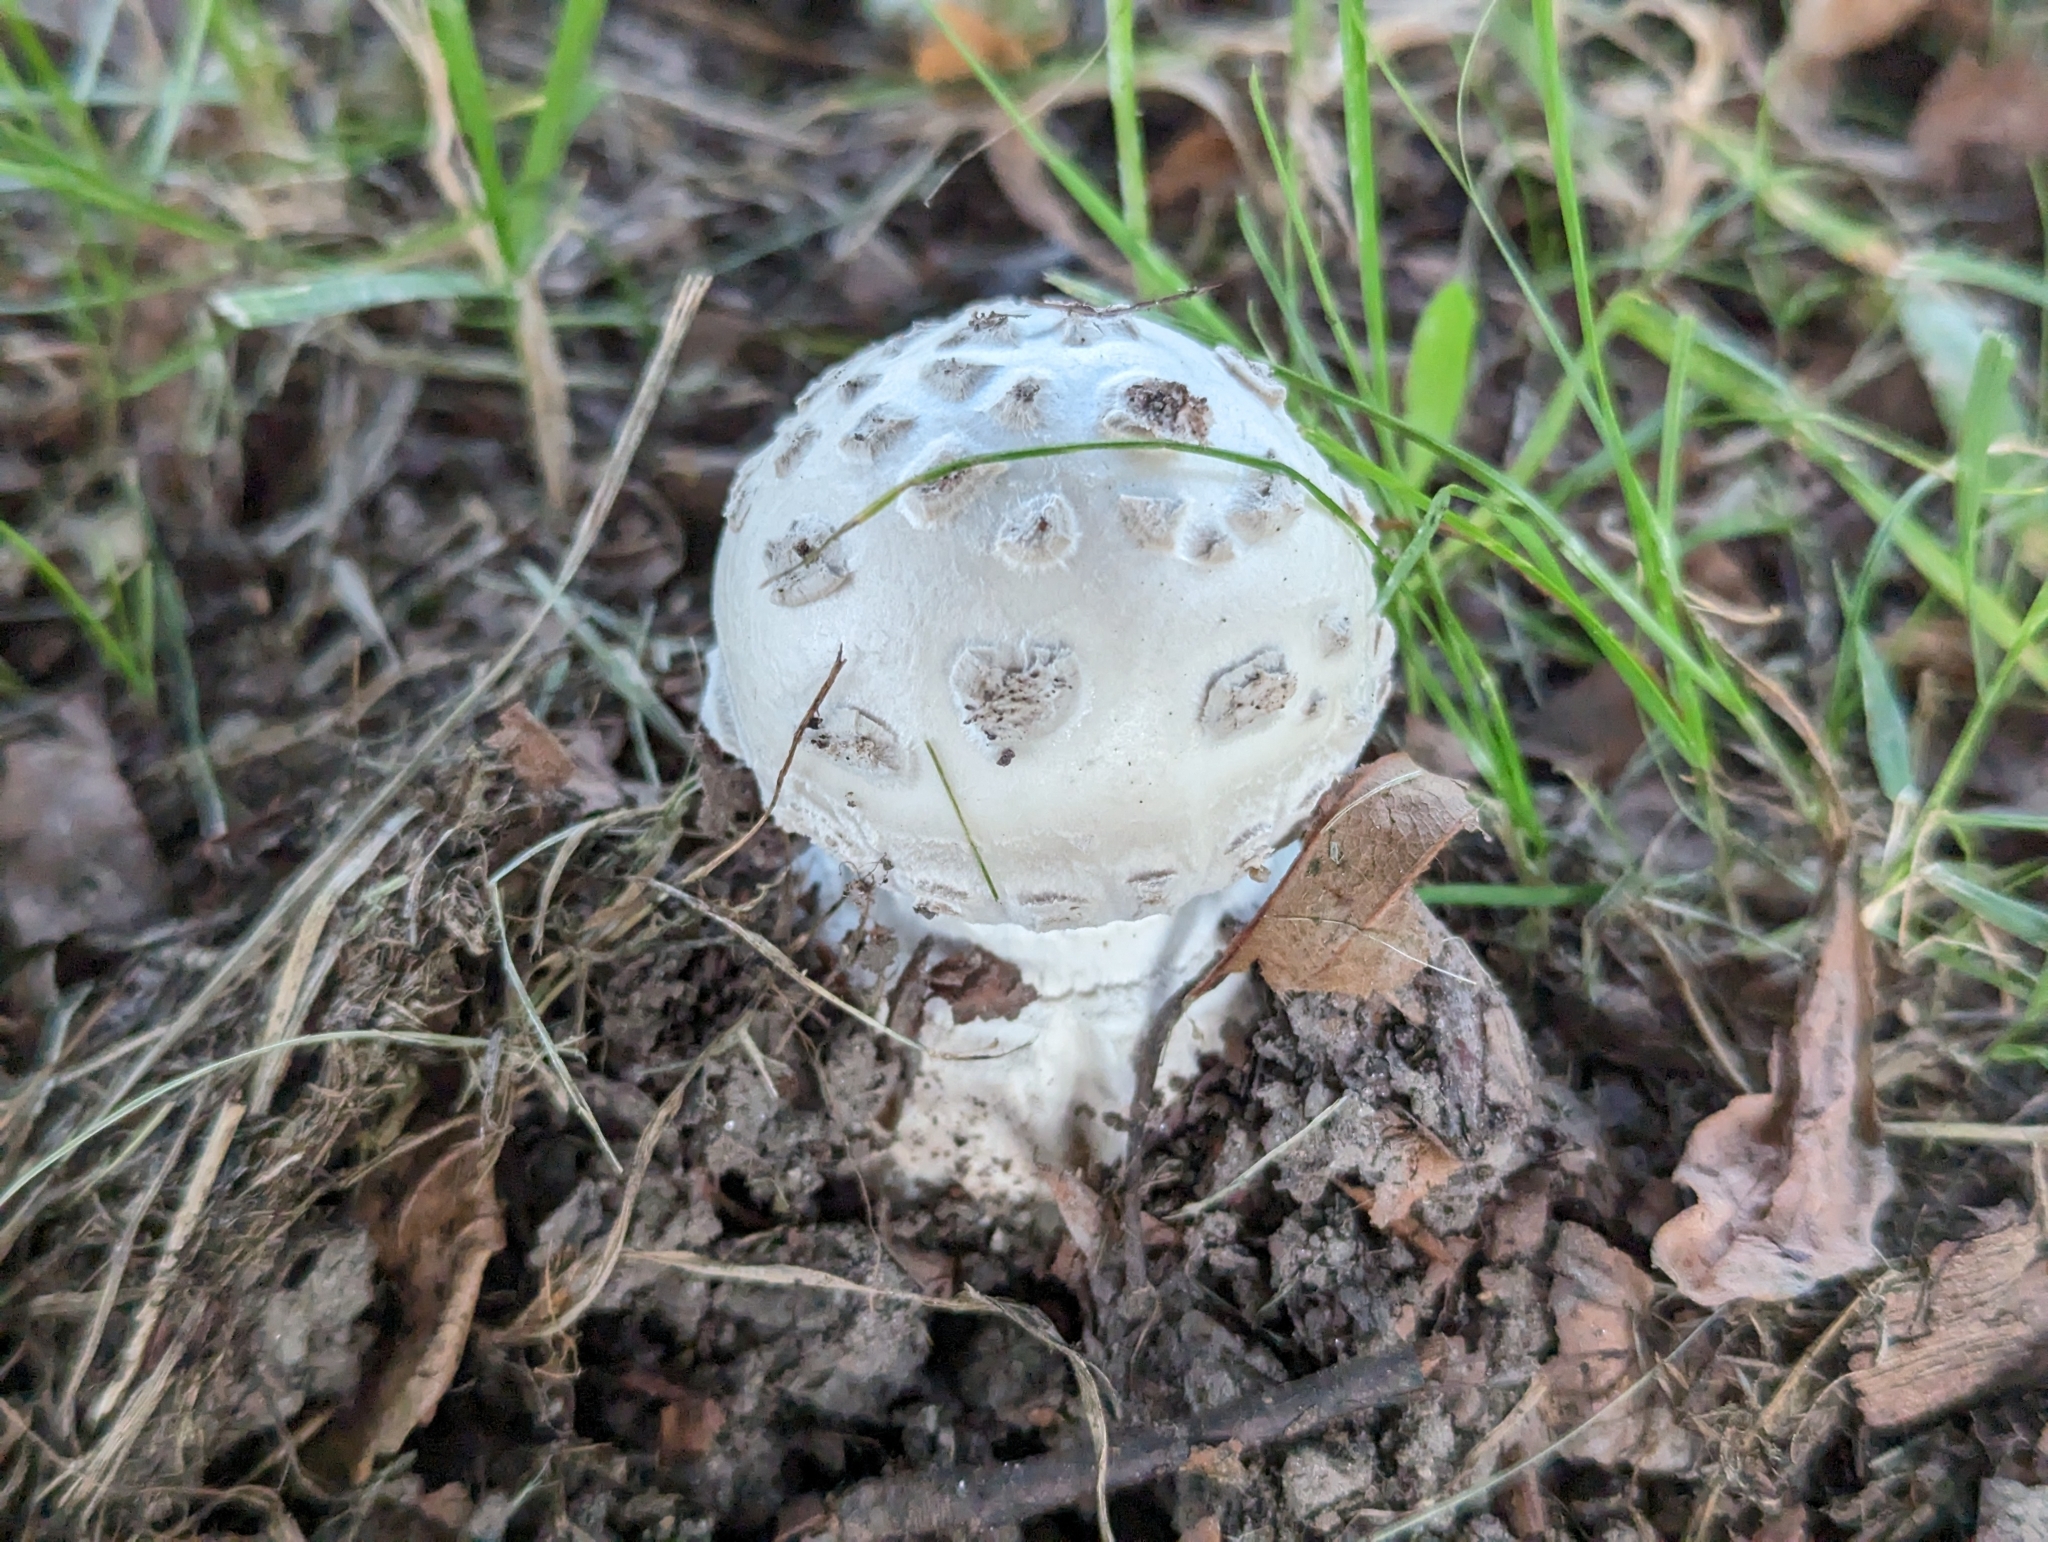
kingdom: Fungi
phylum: Basidiomycota
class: Agaricomycetes
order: Agaricales
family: Amanitaceae
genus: Amanita
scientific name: Amanita strobiliformis
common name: Warted amanita
